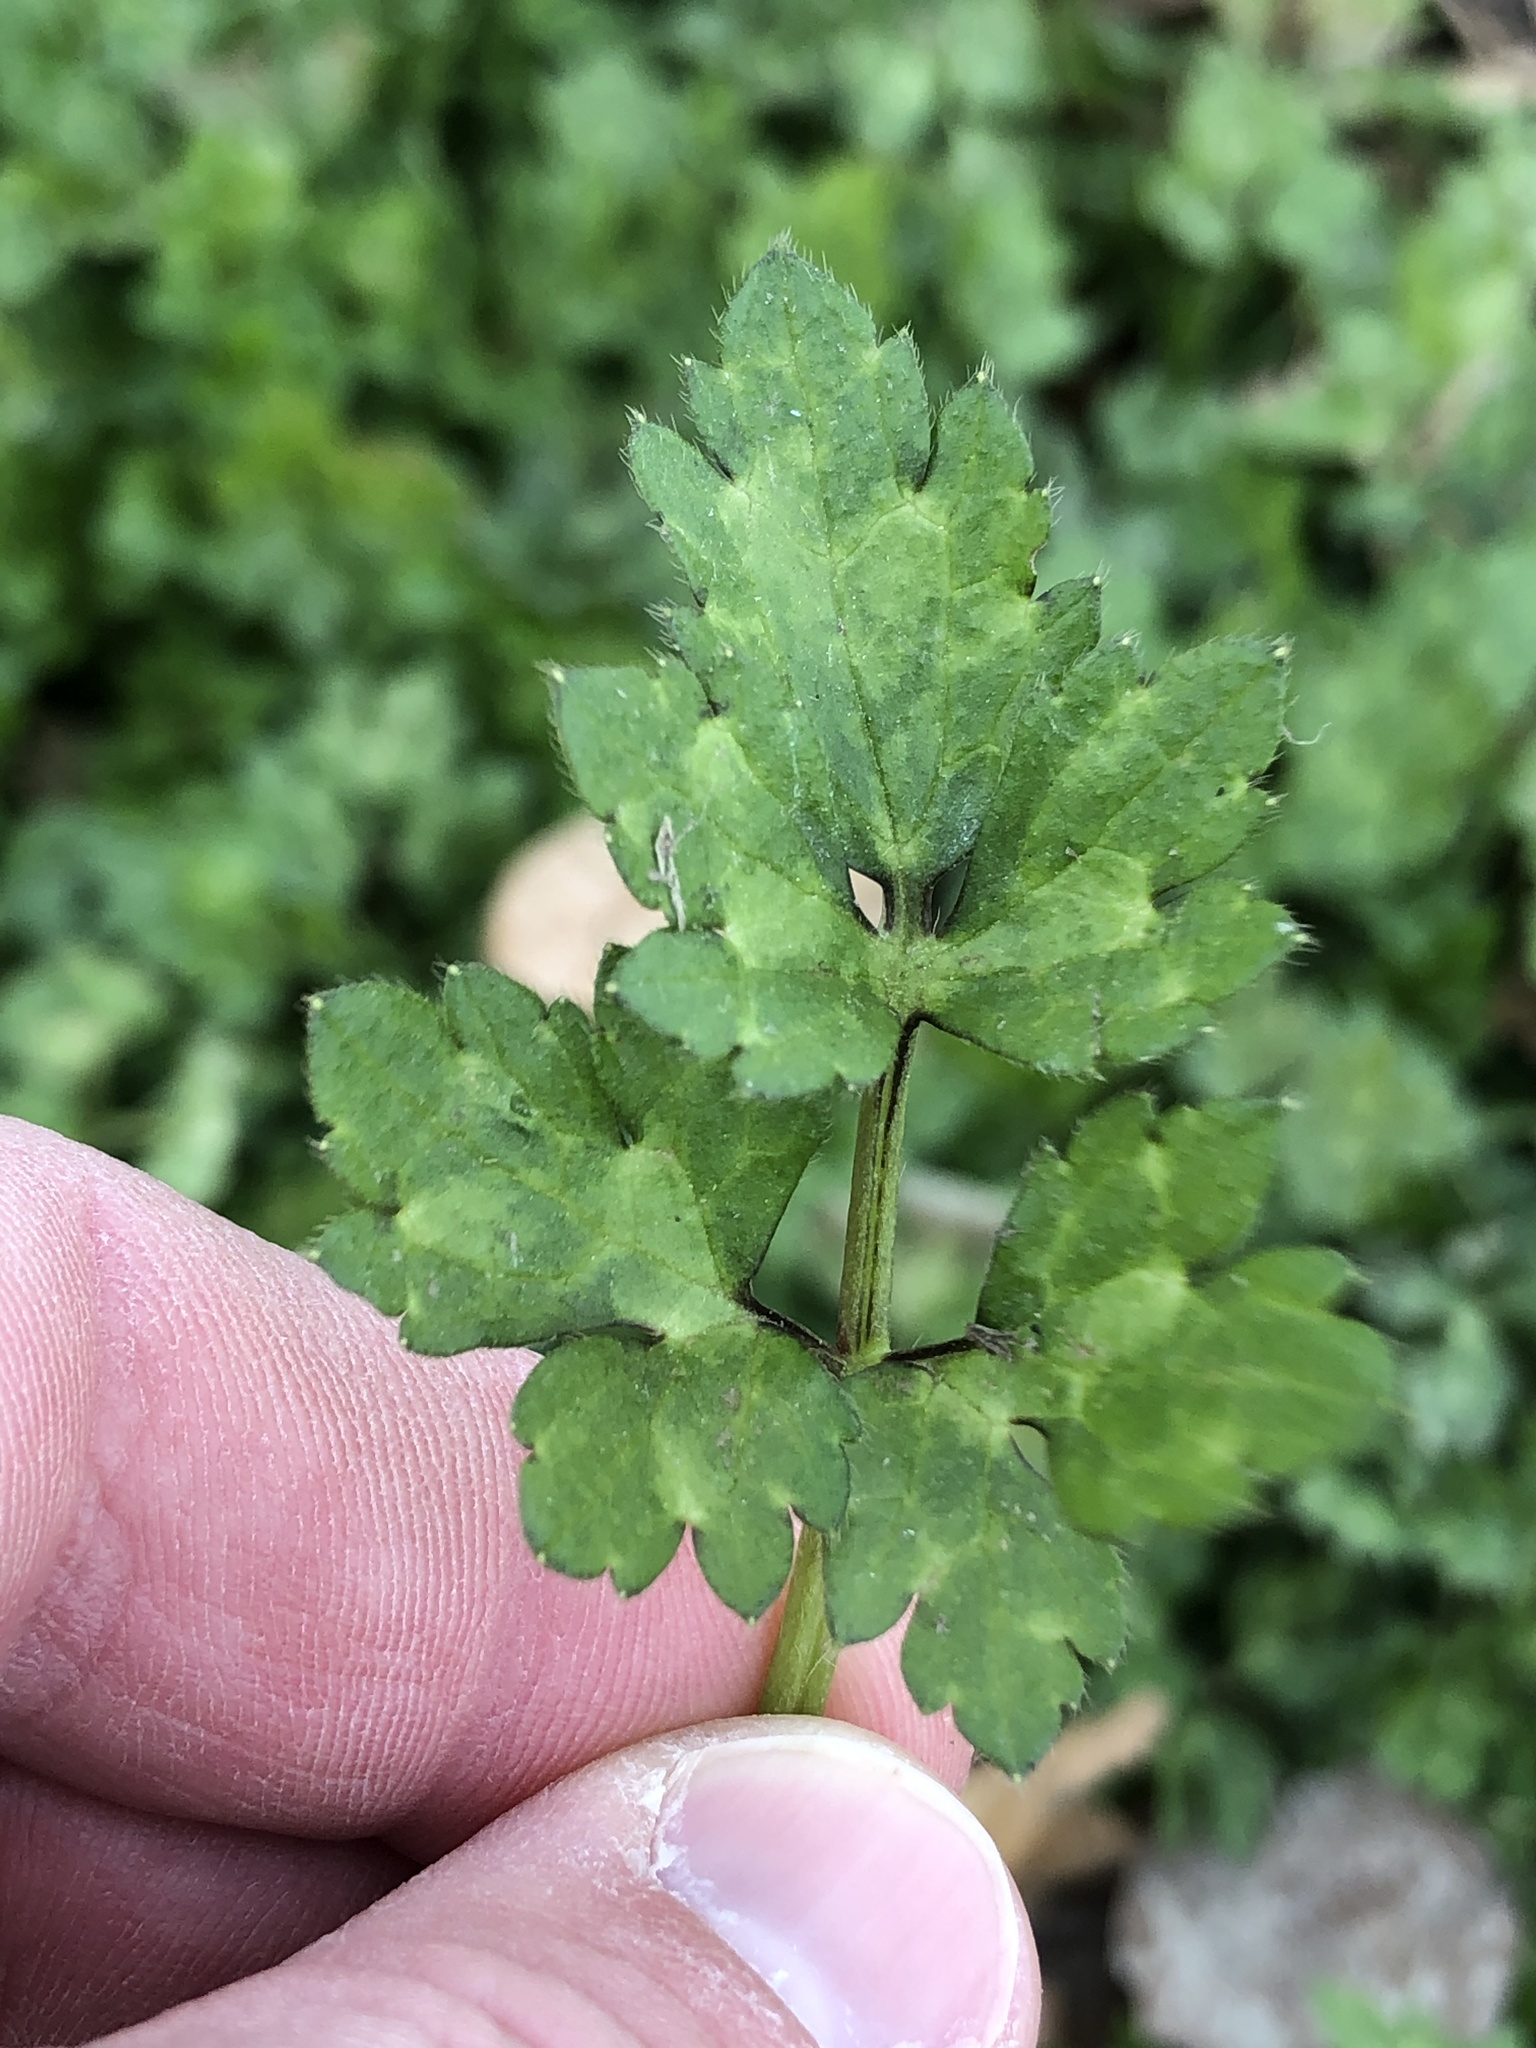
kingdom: Plantae
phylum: Tracheophyta
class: Magnoliopsida
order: Ranunculales
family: Ranunculaceae
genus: Ranunculus
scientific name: Ranunculus repens
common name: Creeping buttercup
